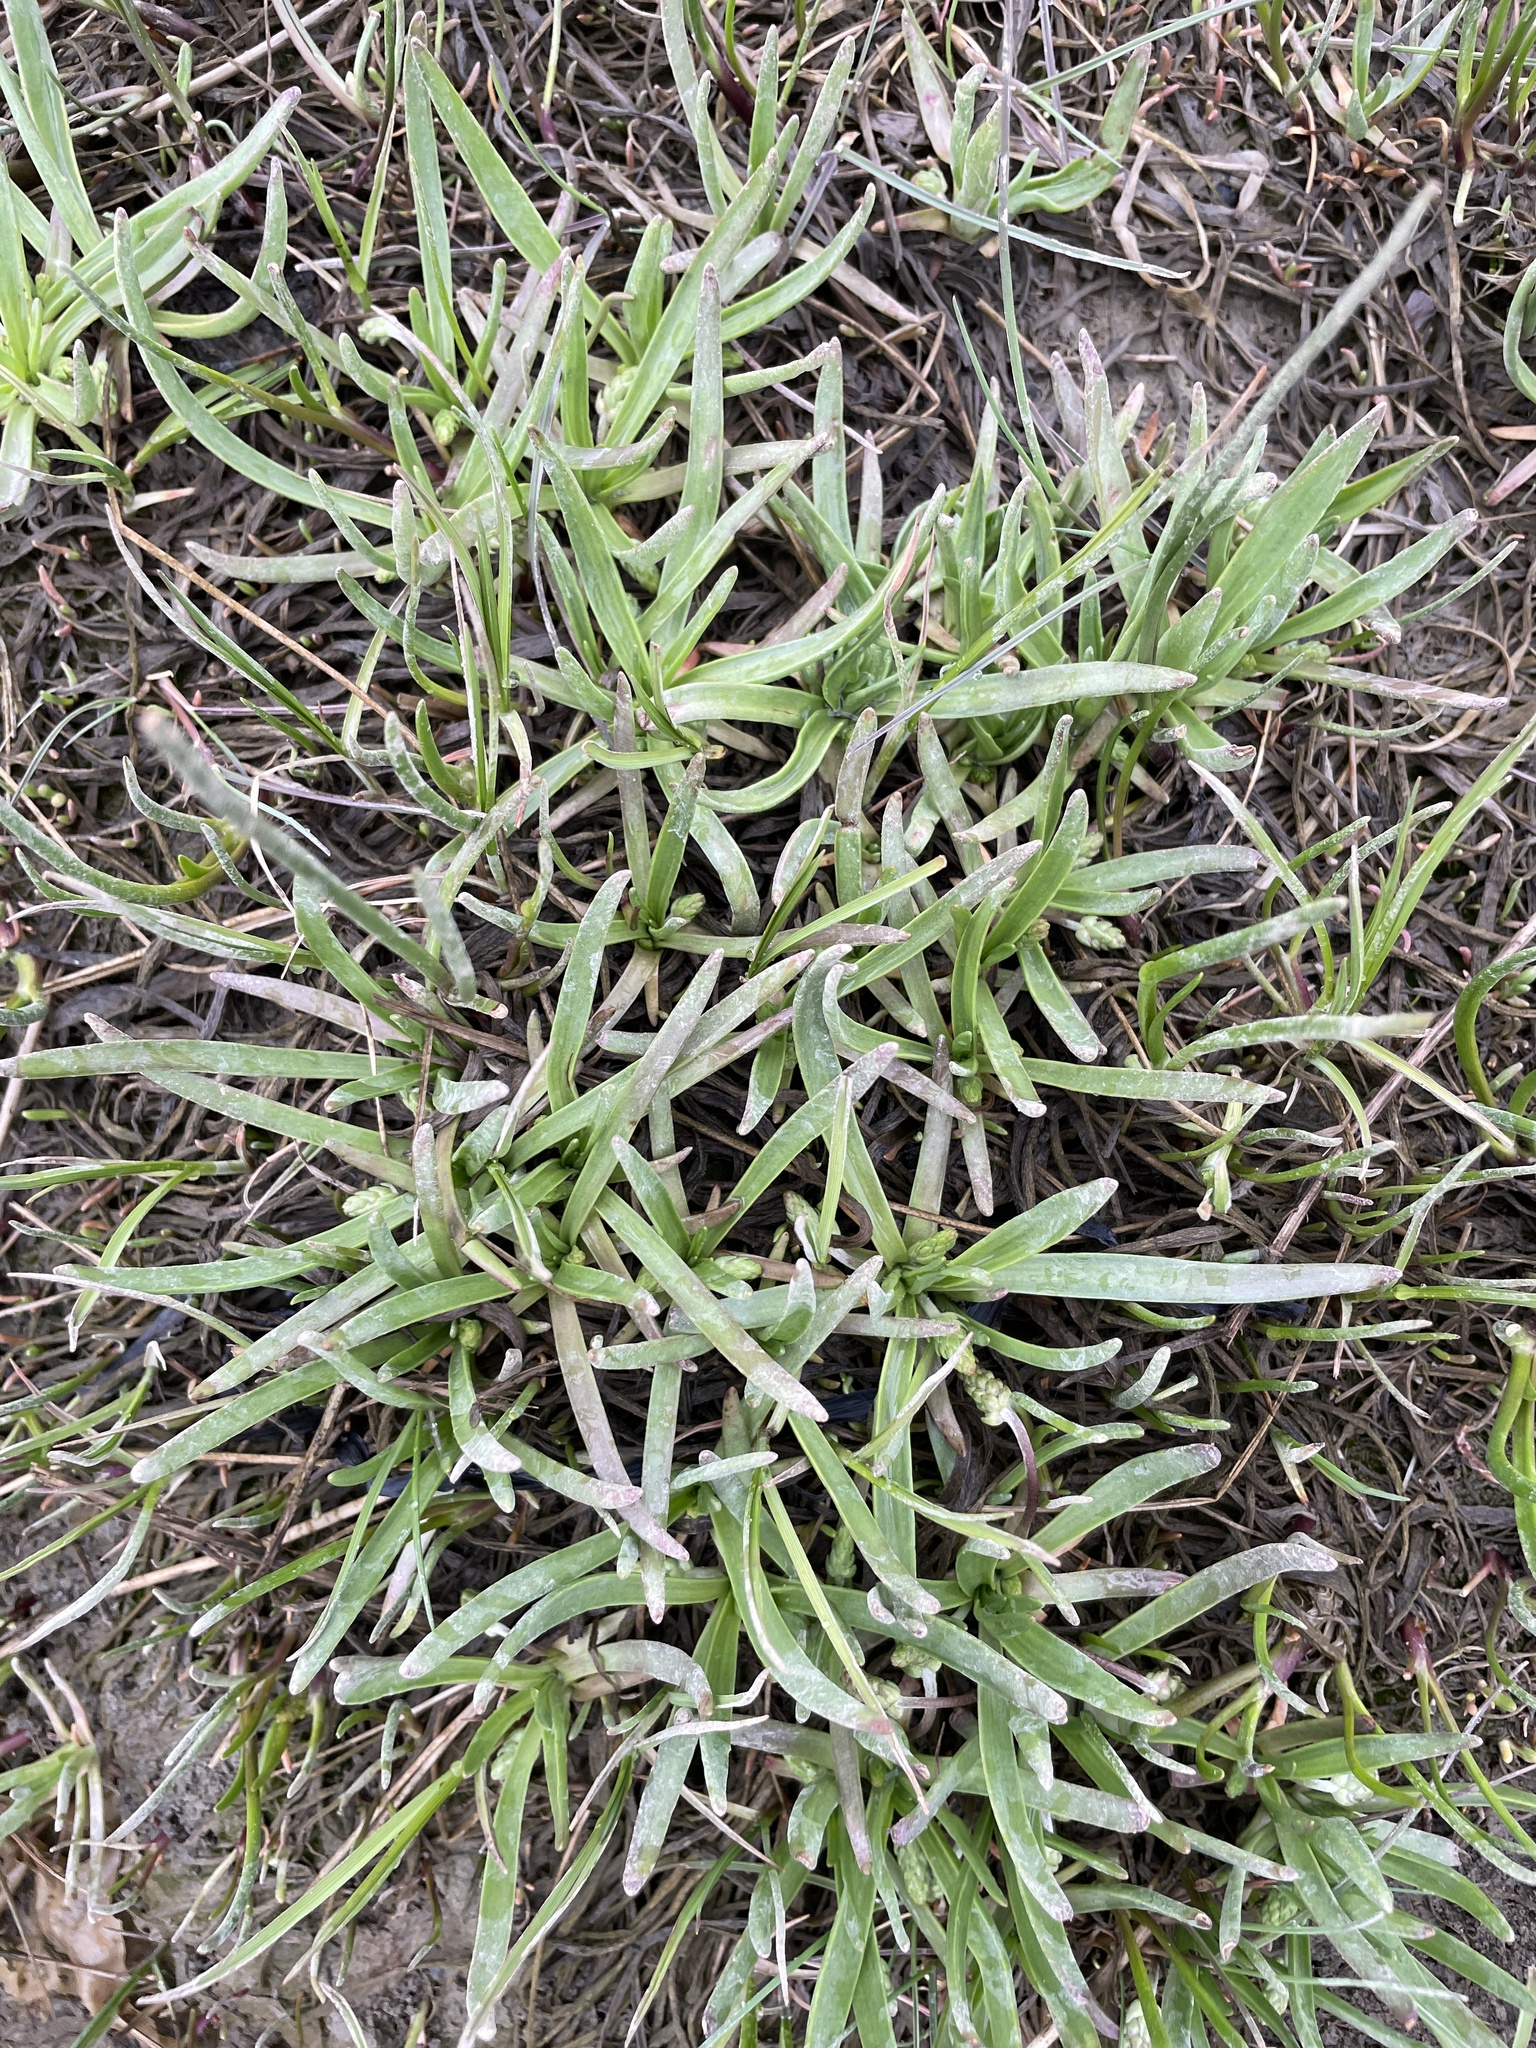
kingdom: Plantae
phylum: Tracheophyta
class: Magnoliopsida
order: Lamiales
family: Plantaginaceae
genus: Plantago
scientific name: Plantago maritima
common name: Sea plantain
